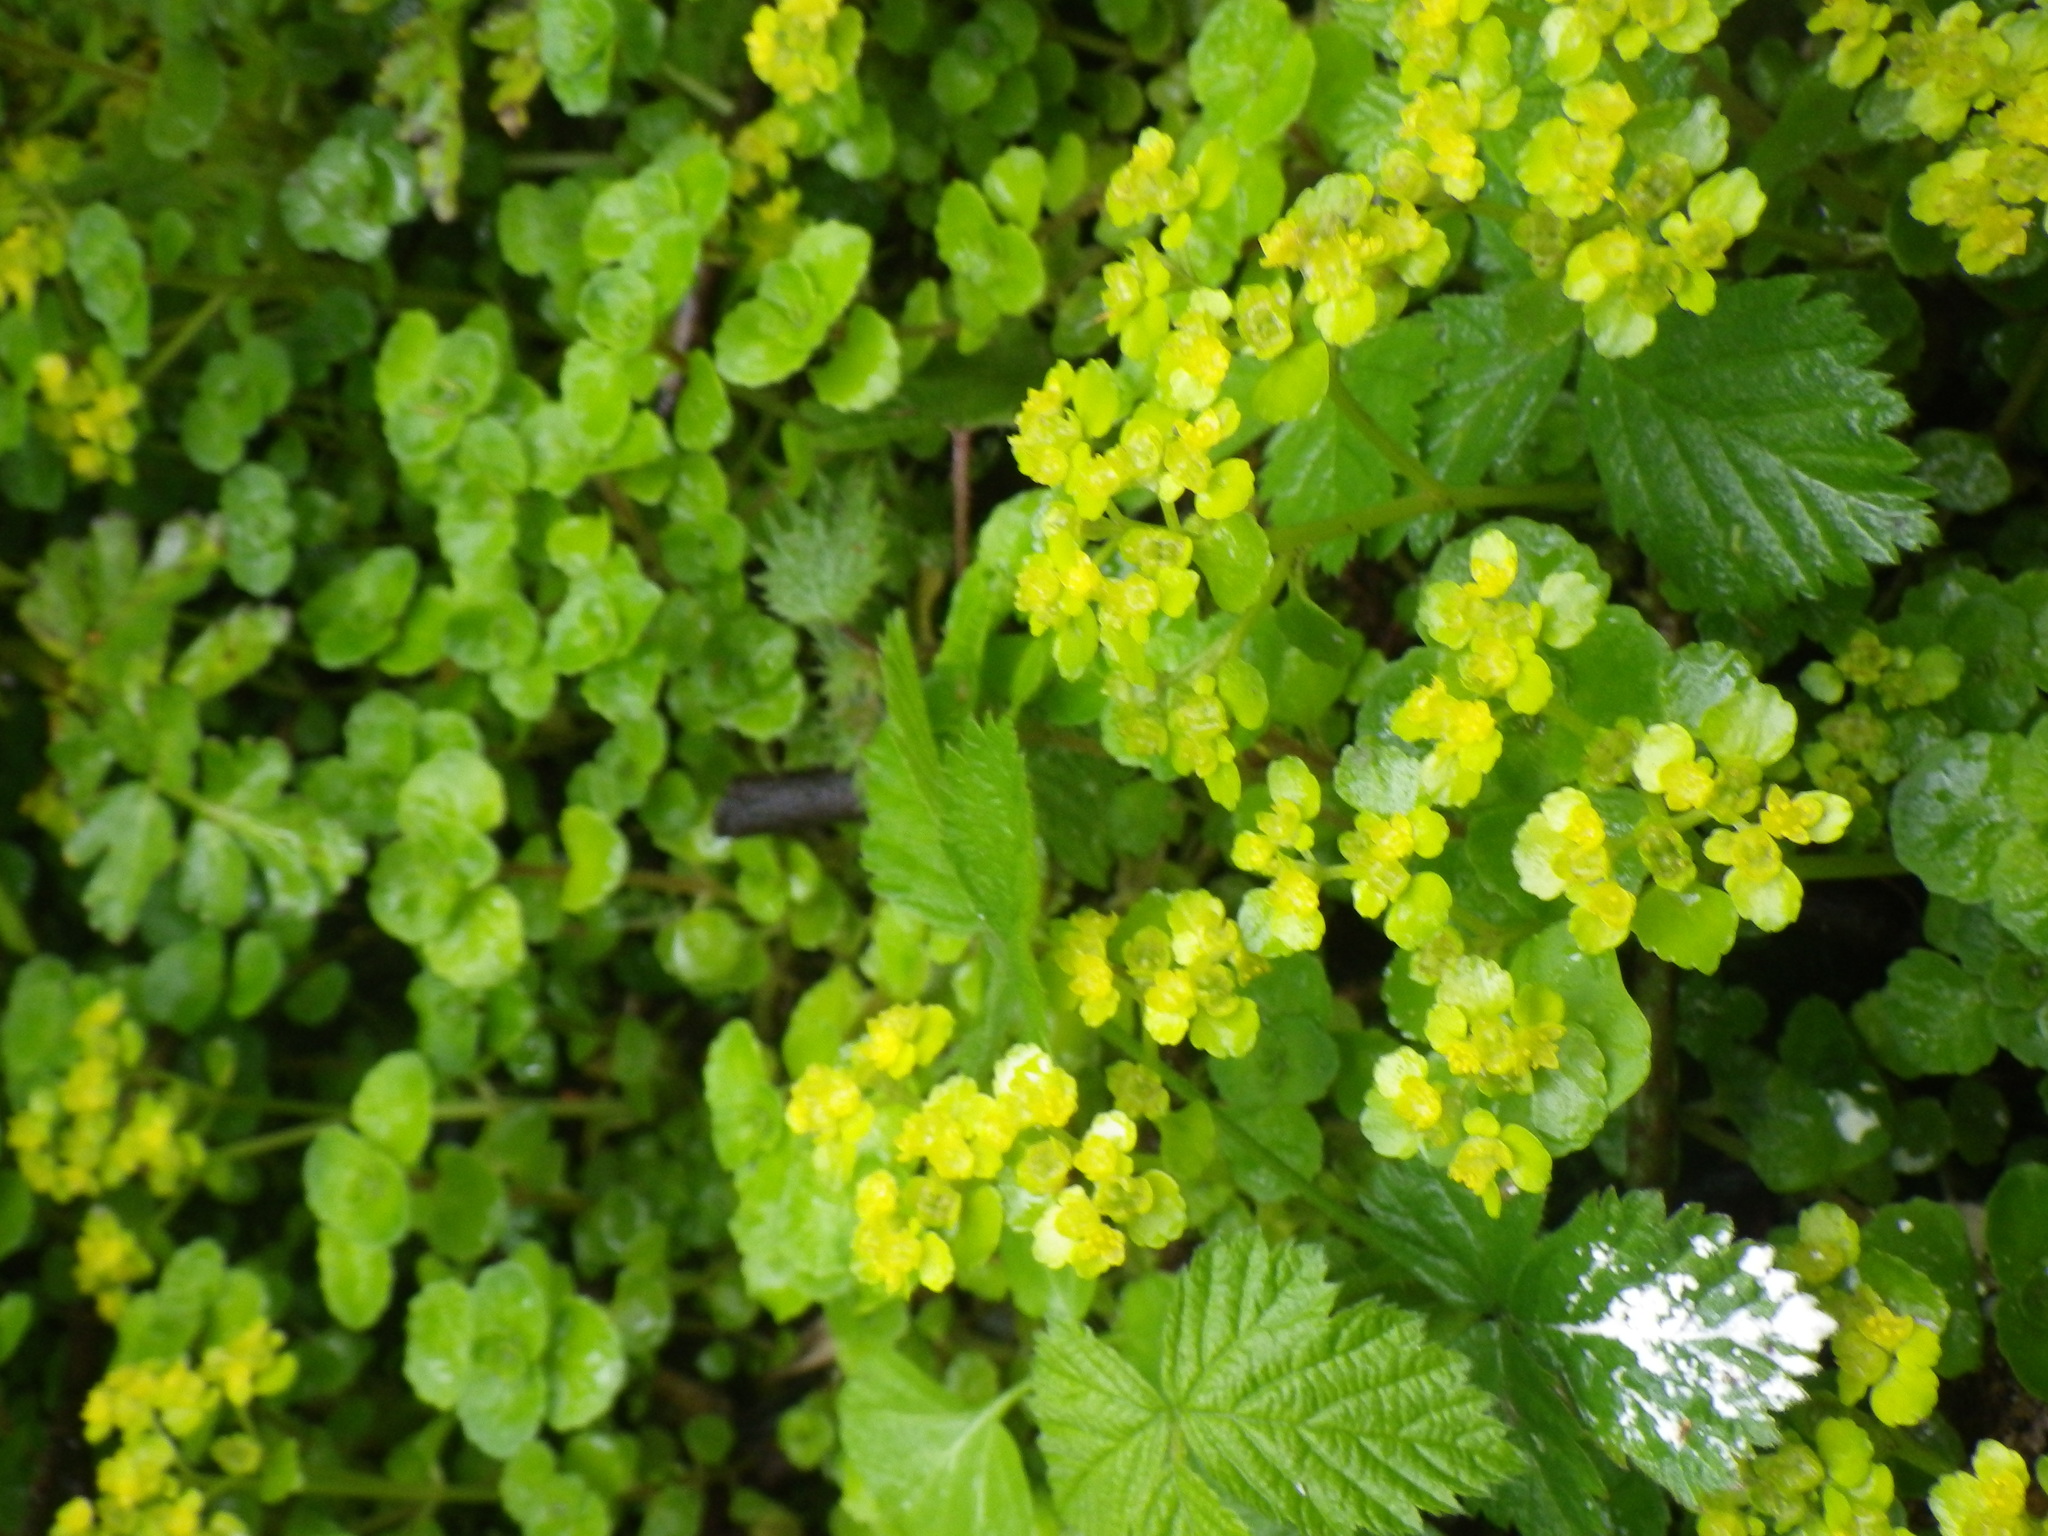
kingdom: Plantae
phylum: Tracheophyta
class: Magnoliopsida
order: Saxifragales
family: Saxifragaceae
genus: Chrysosplenium
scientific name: Chrysosplenium oppositifolium
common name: Opposite-leaved golden-saxifrage
